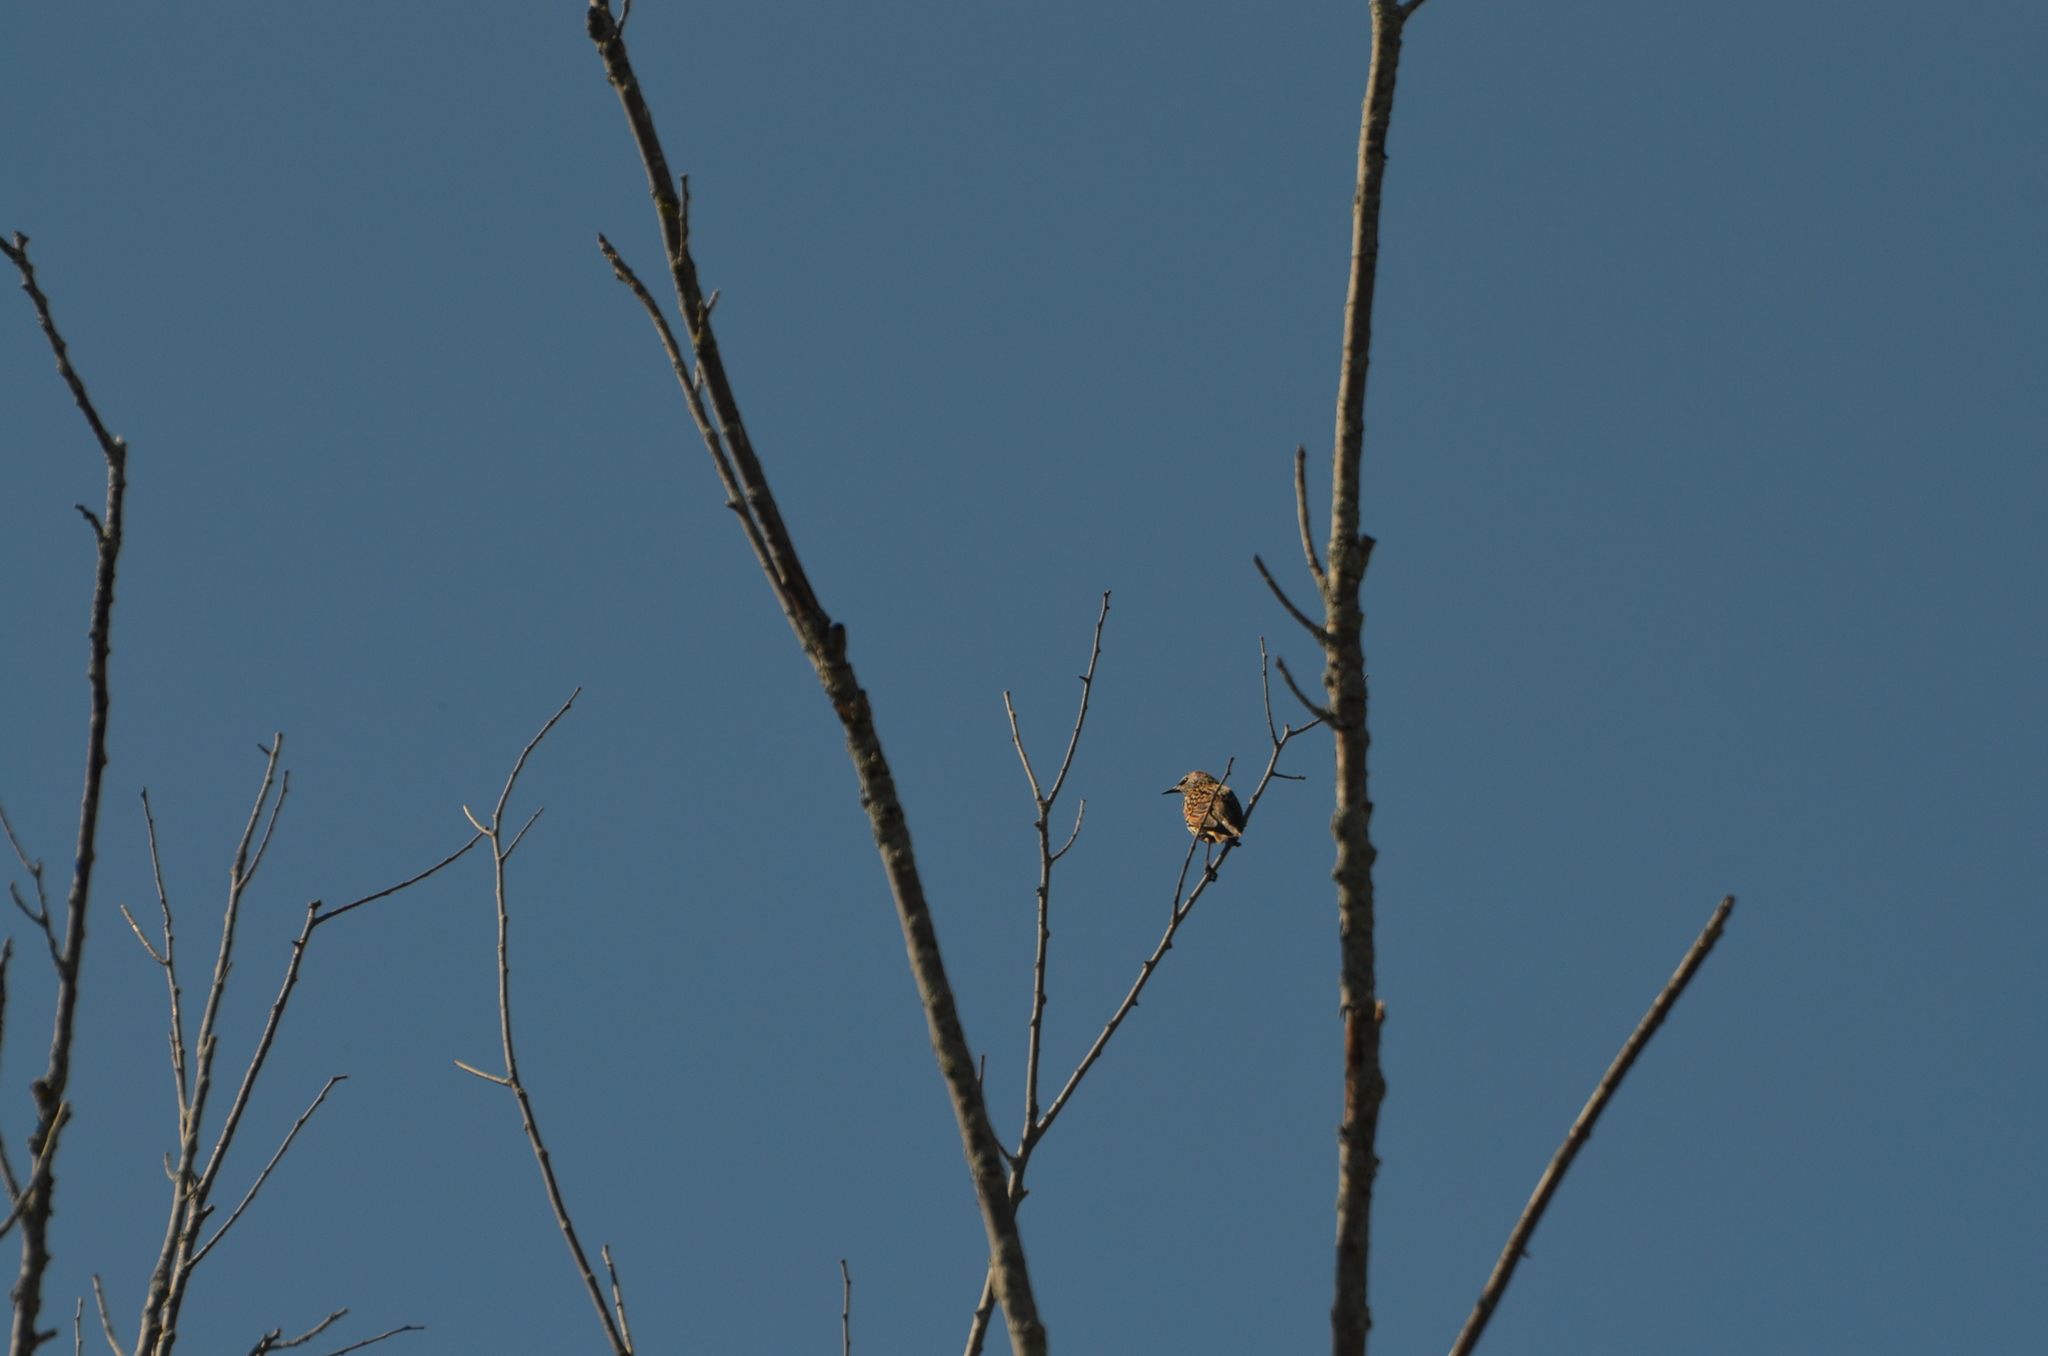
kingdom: Animalia
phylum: Chordata
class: Aves
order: Passeriformes
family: Sturnidae
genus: Sturnus
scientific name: Sturnus vulgaris
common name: Common starling
